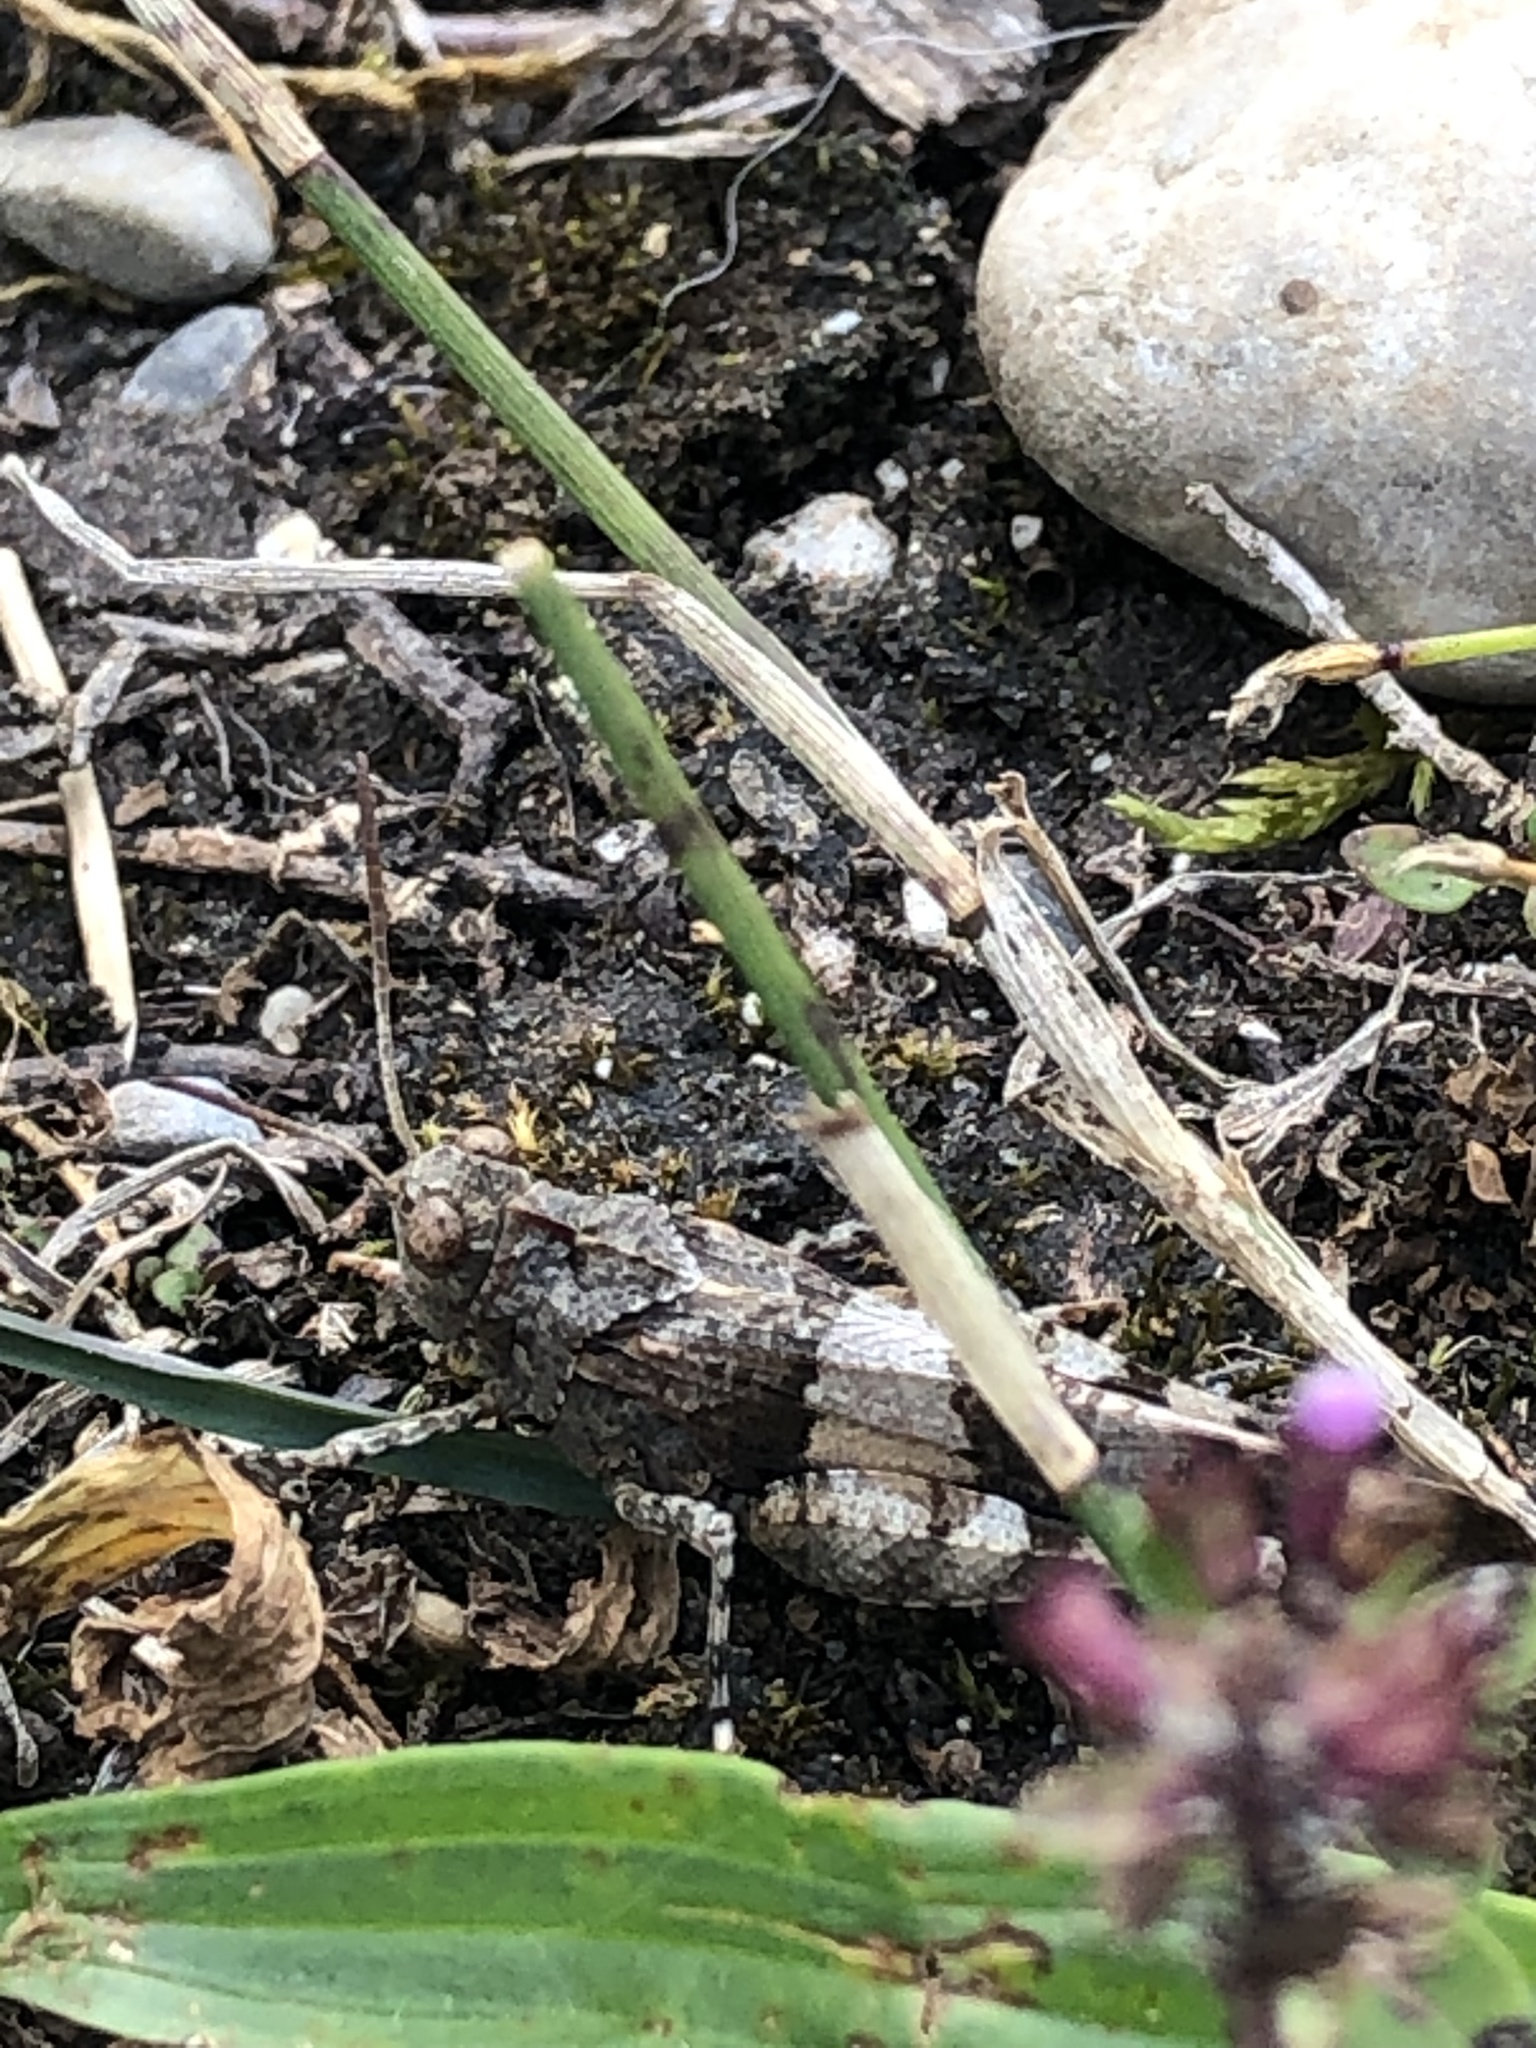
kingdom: Animalia
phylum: Arthropoda
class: Insecta
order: Orthoptera
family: Acrididae
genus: Oedipoda
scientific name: Oedipoda caerulescens
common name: Blue-winged grasshopper
